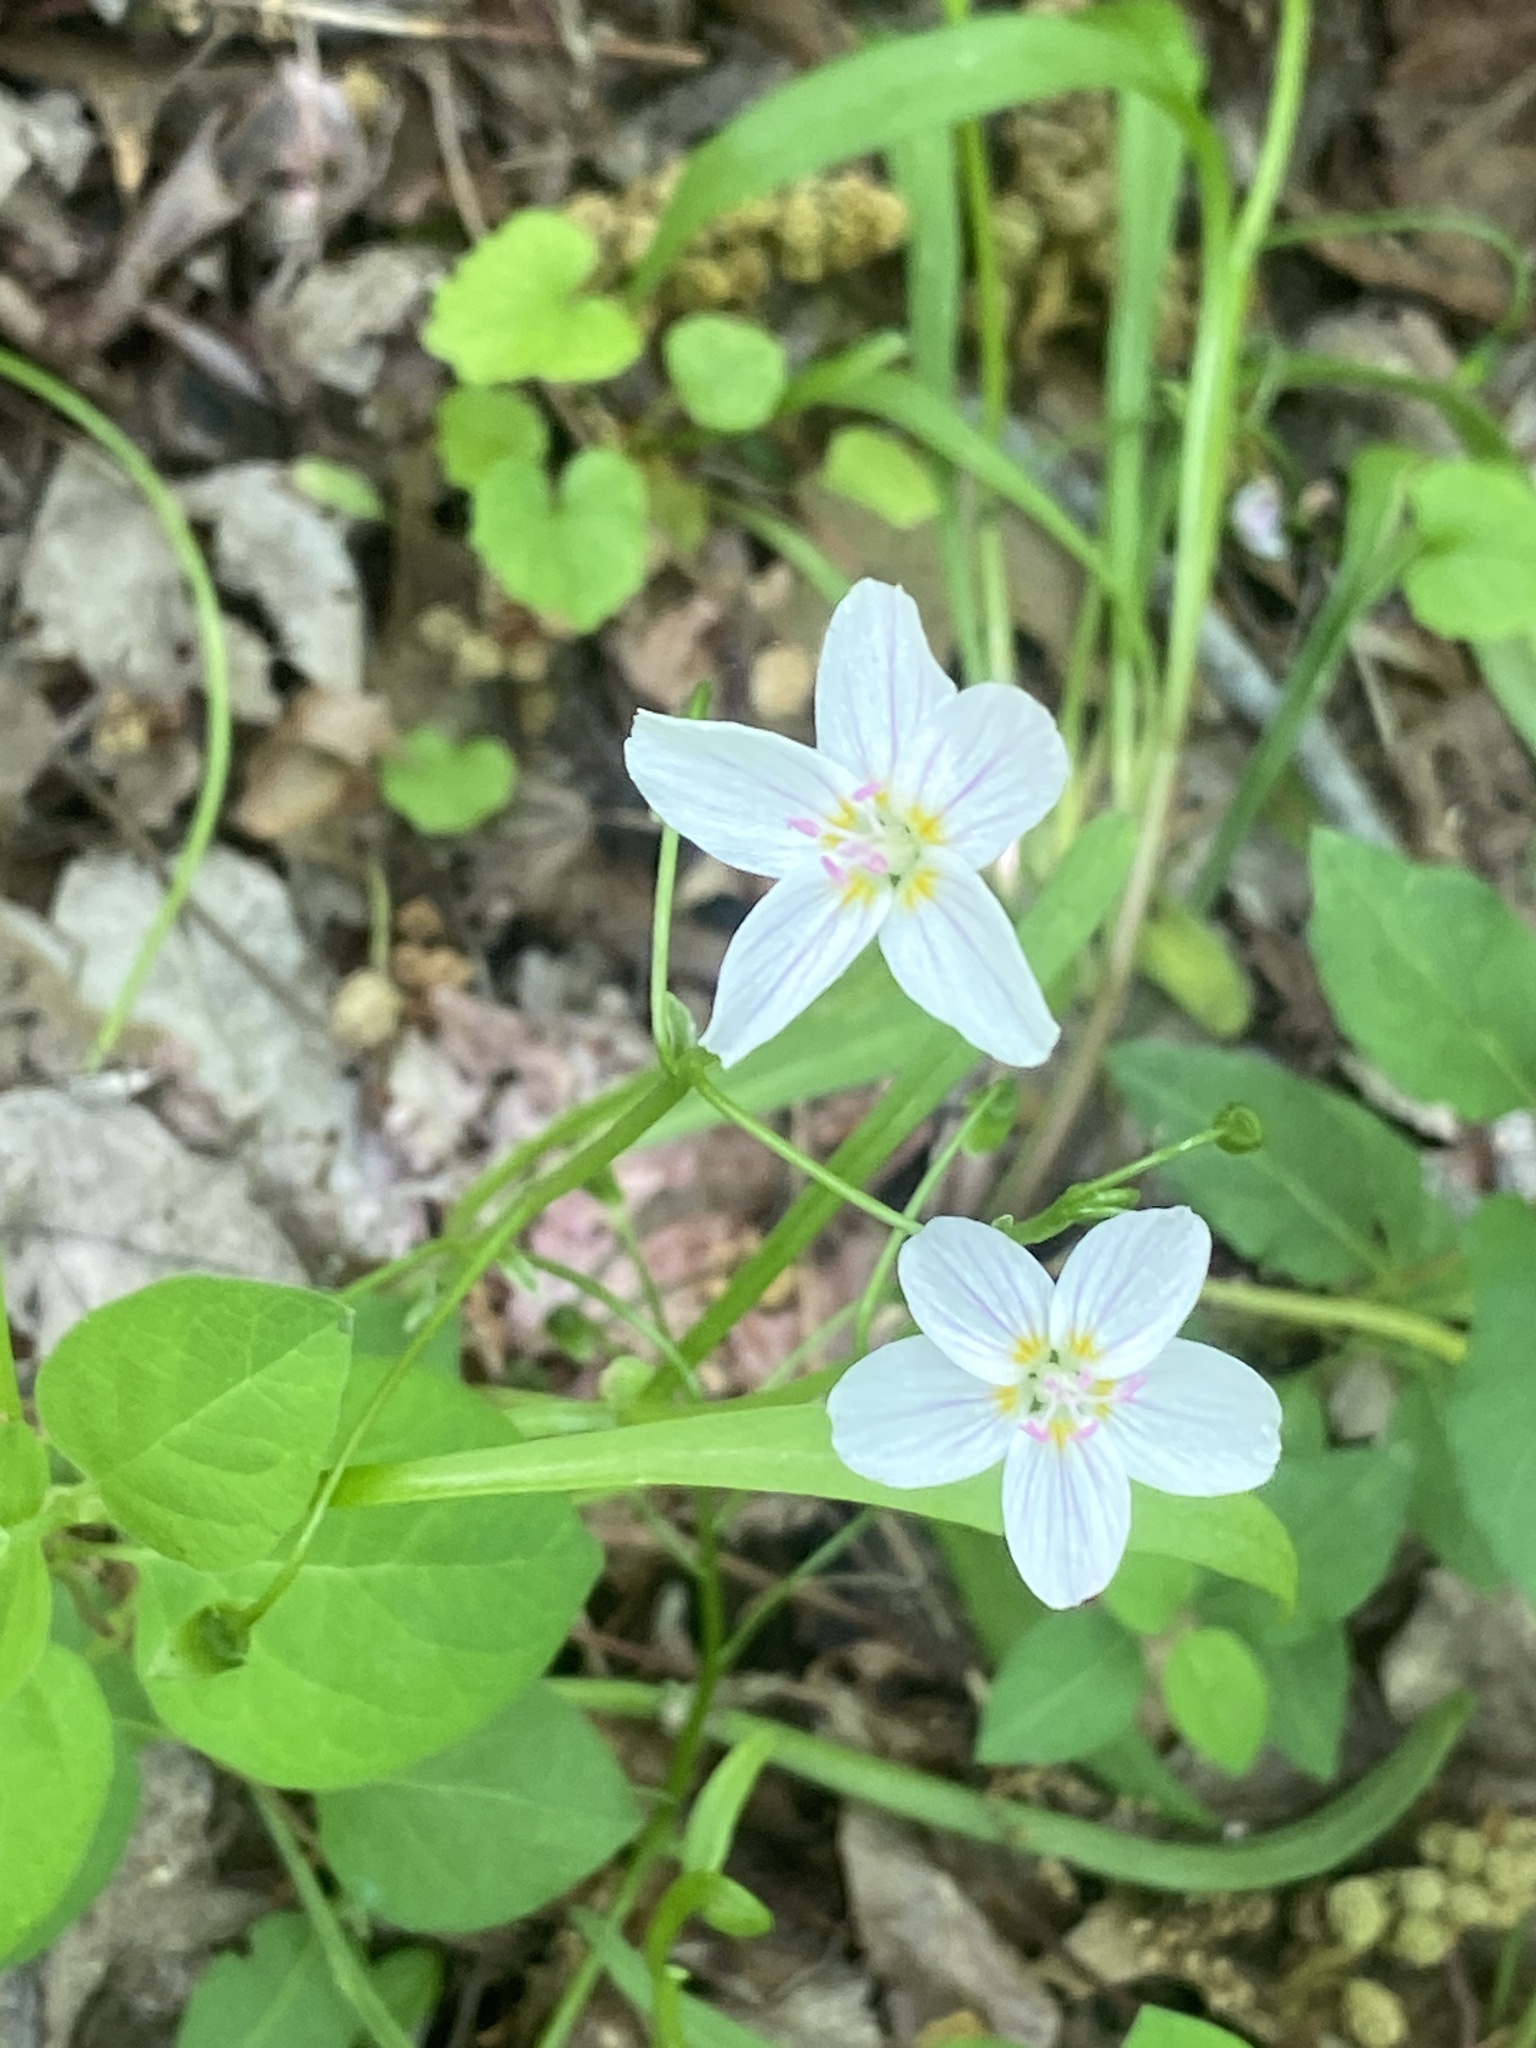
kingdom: Plantae
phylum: Tracheophyta
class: Magnoliopsida
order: Caryophyllales
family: Montiaceae
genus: Claytonia
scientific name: Claytonia virginica
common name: Virginia springbeauty
